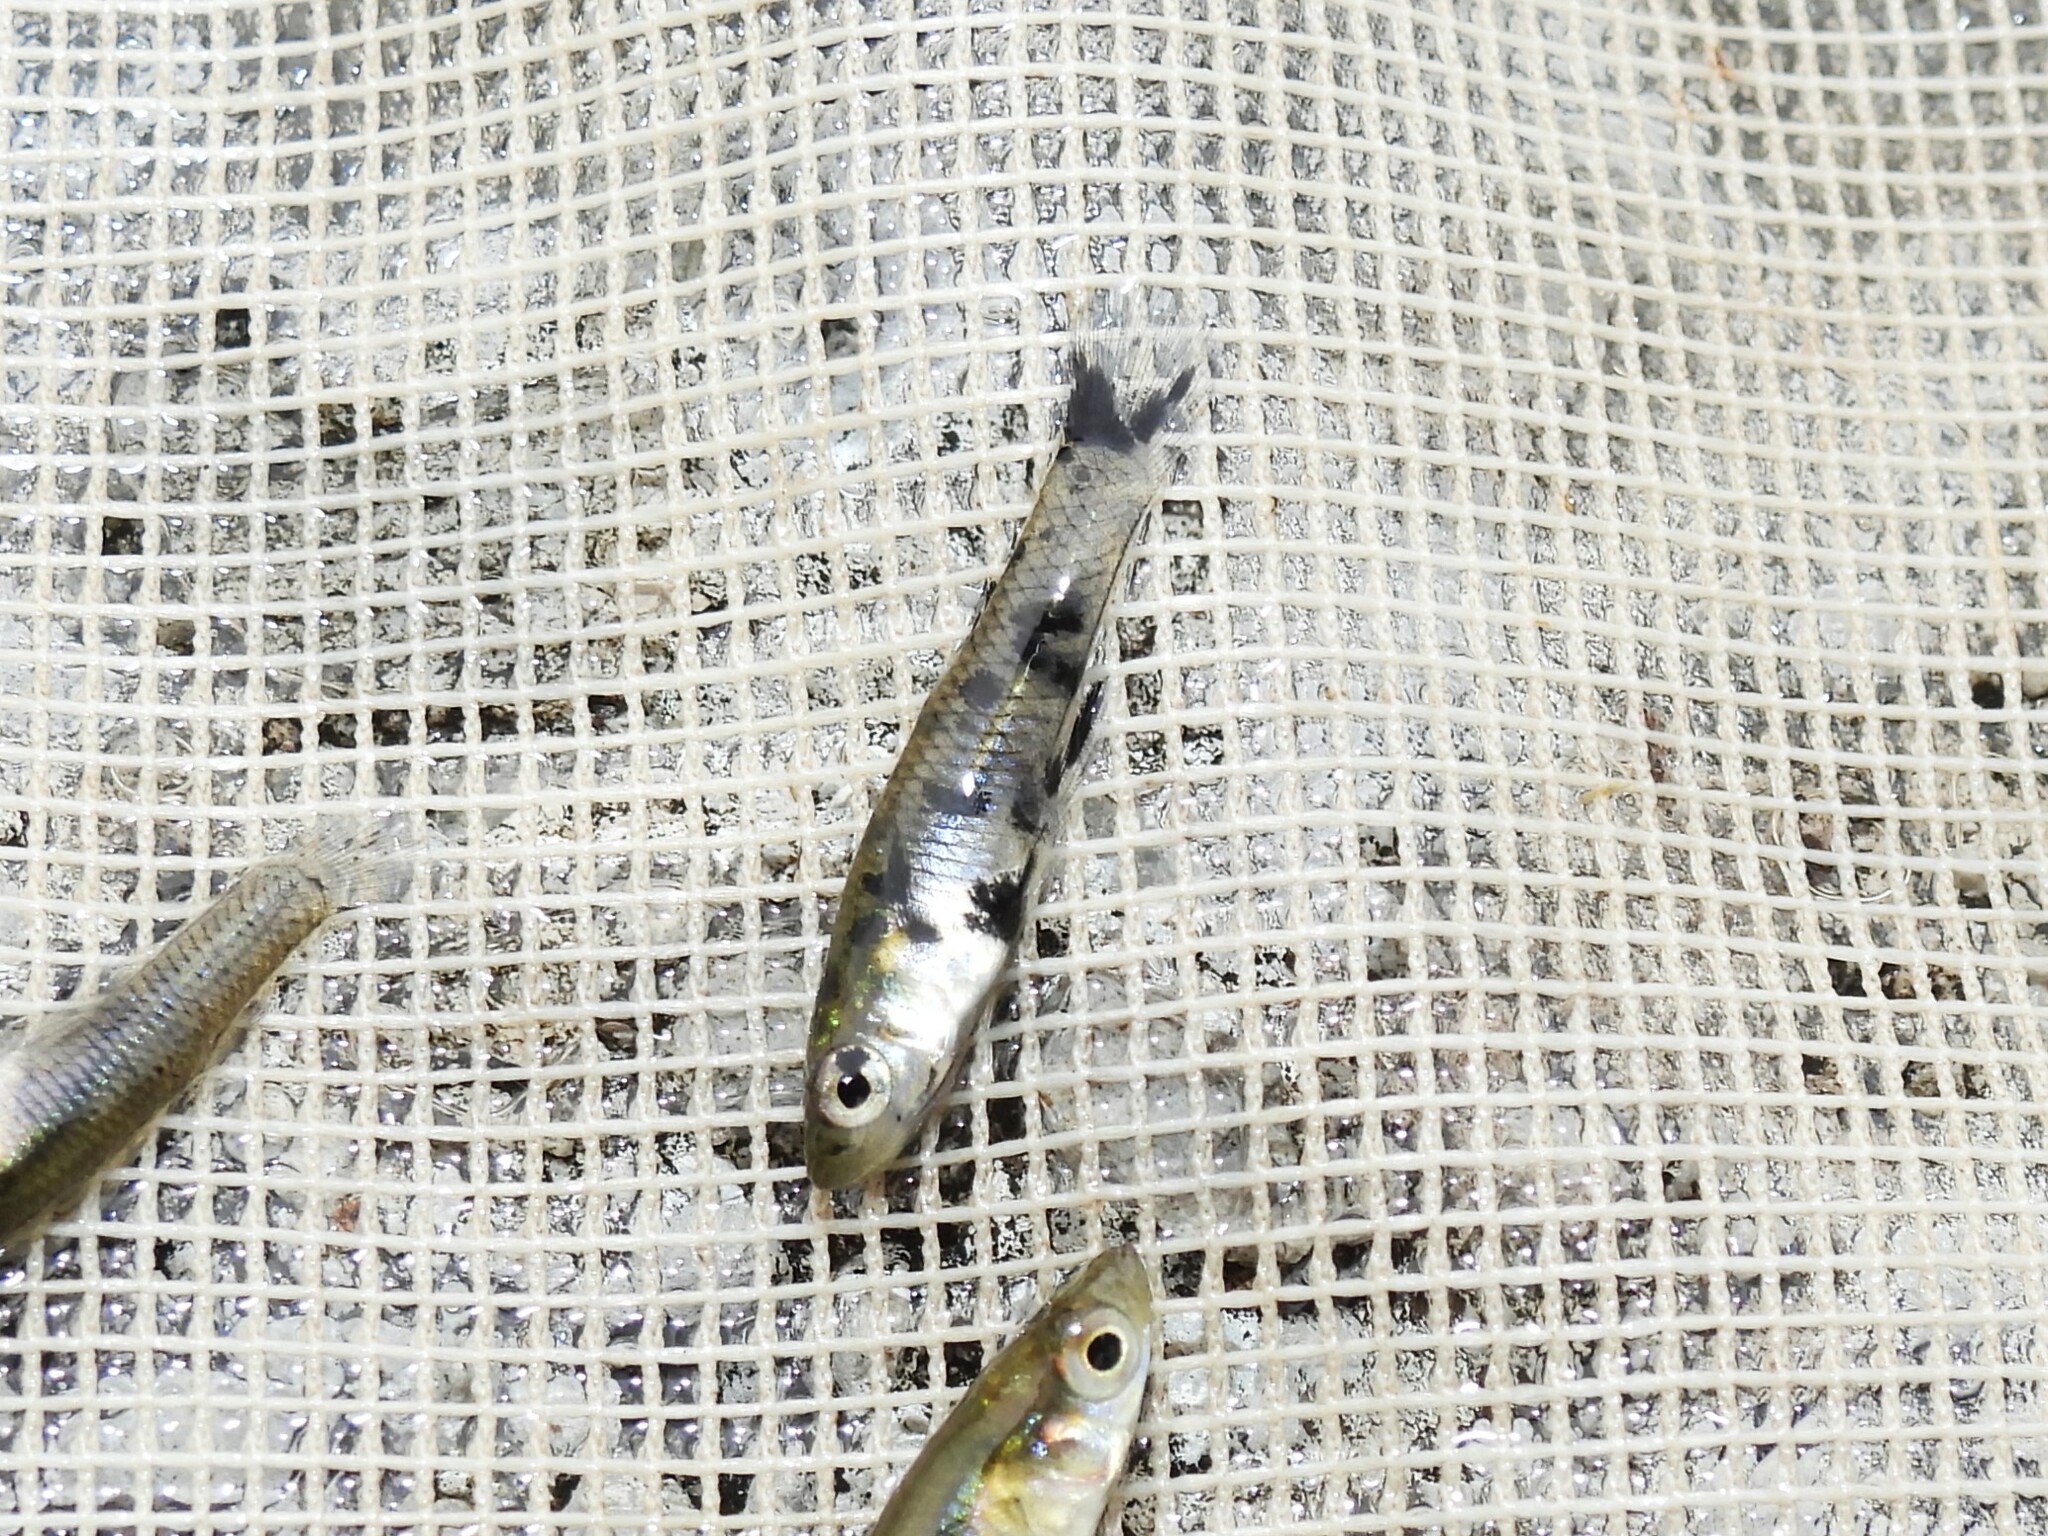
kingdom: Animalia
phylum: Chordata
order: Cyprinodontiformes
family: Poeciliidae
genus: Gambusia
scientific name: Gambusia holbrooki
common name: Eastern mosquitofish
